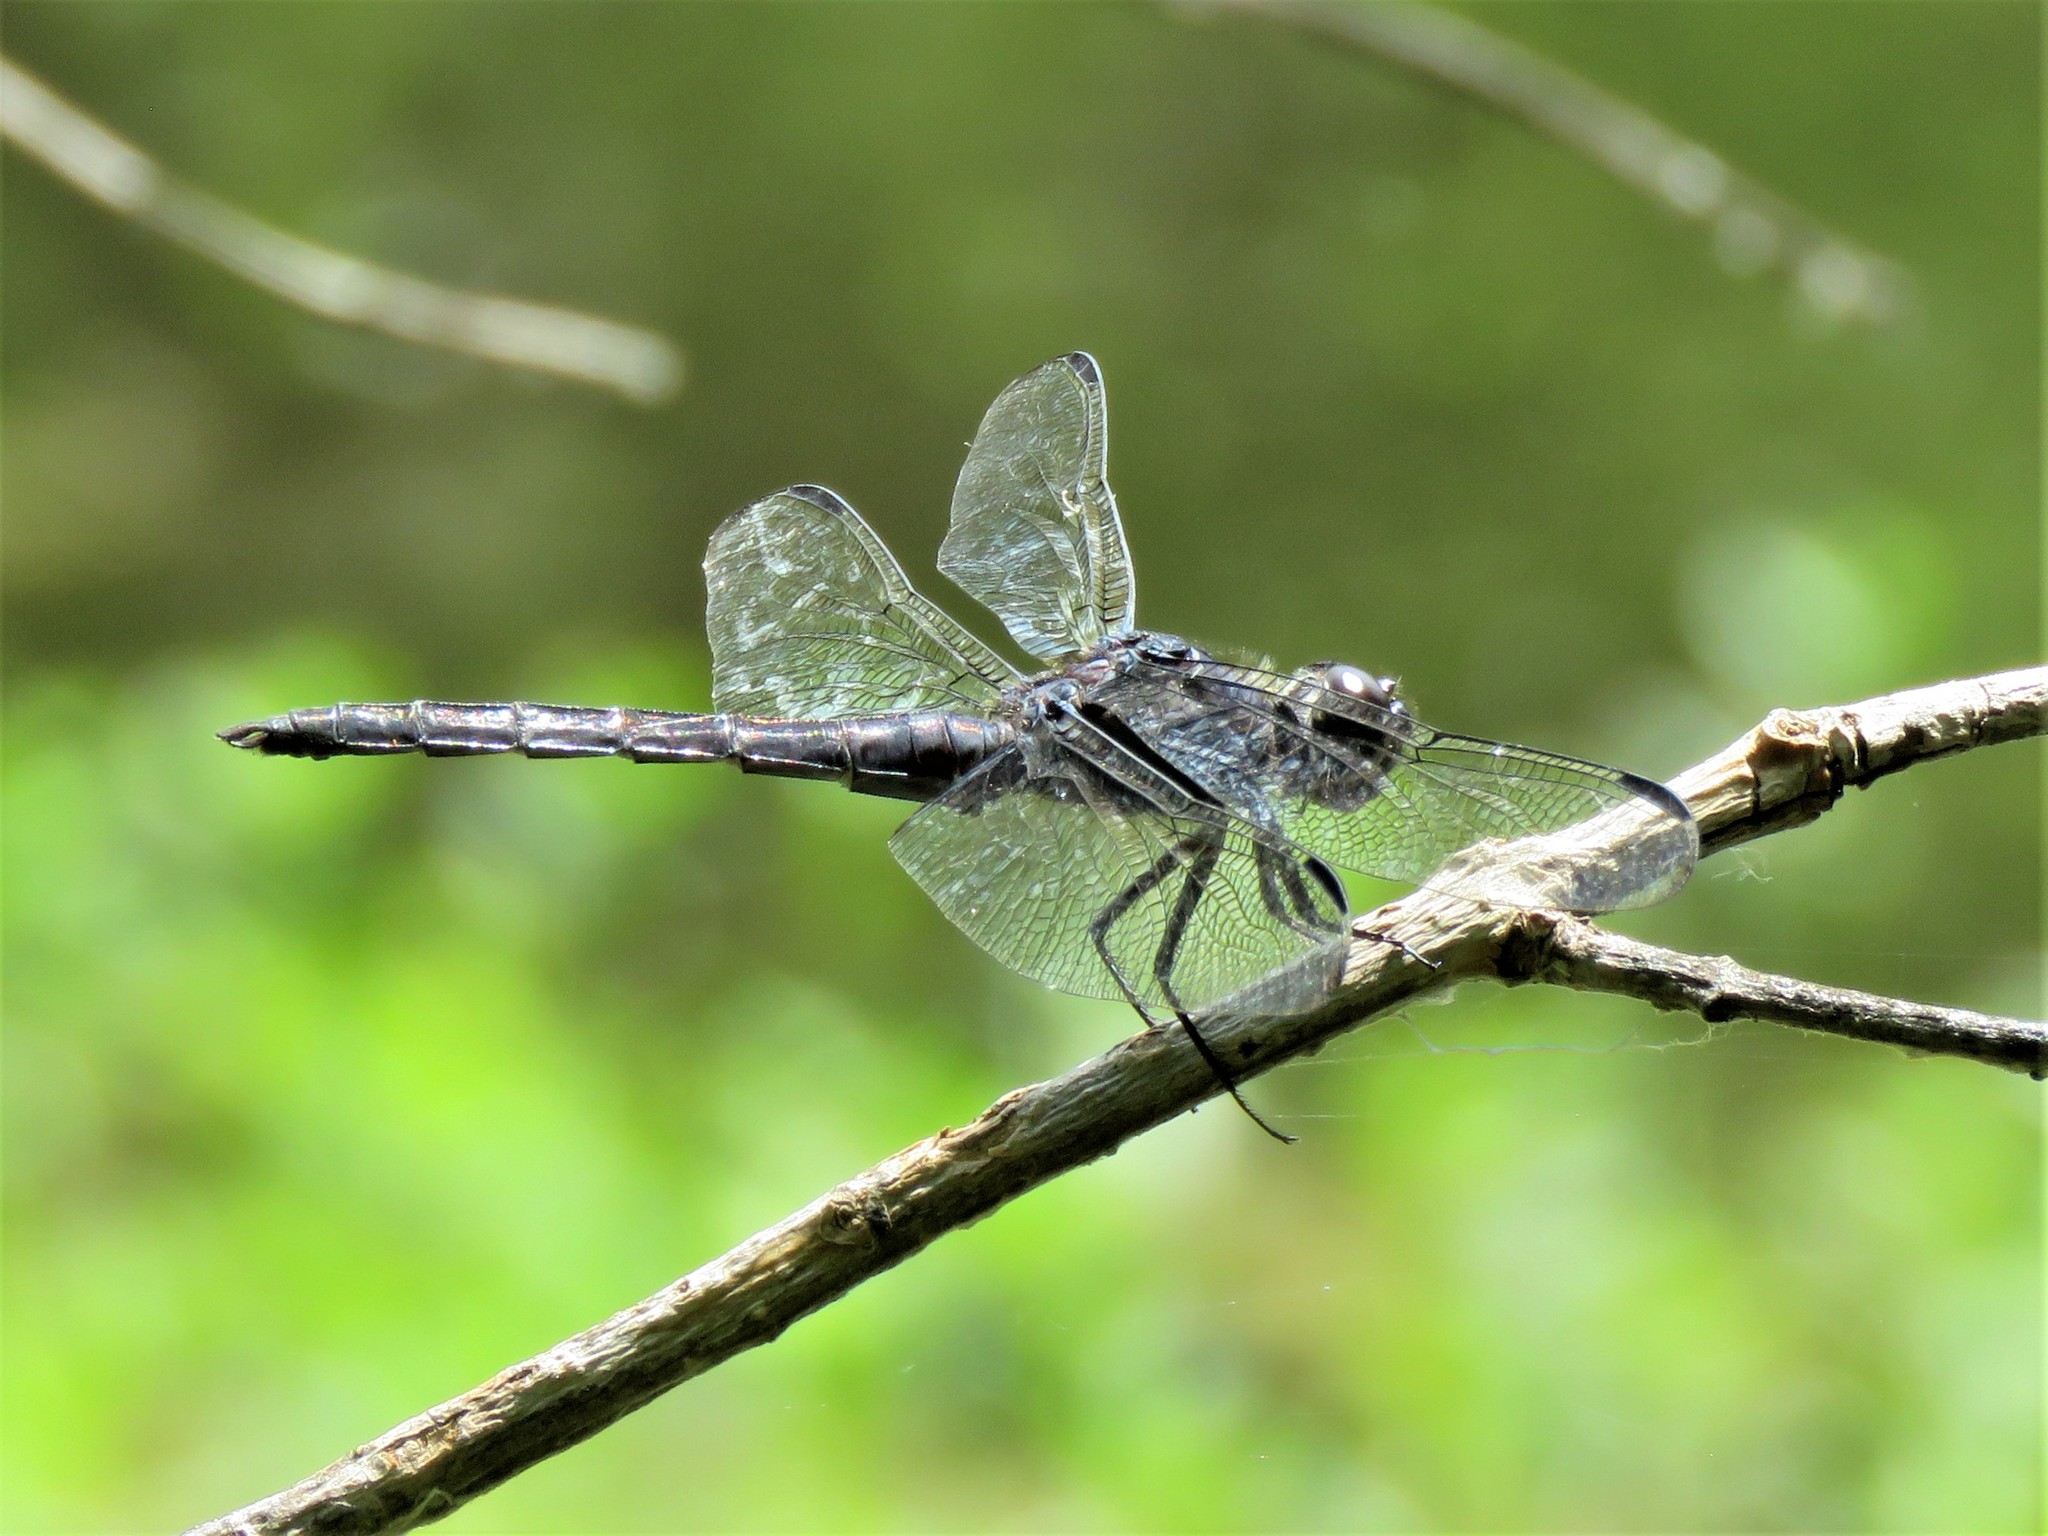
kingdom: Animalia
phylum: Arthropoda
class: Insecta
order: Odonata
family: Libellulidae
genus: Libellula
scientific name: Libellula incesta
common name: Slaty skimmer
